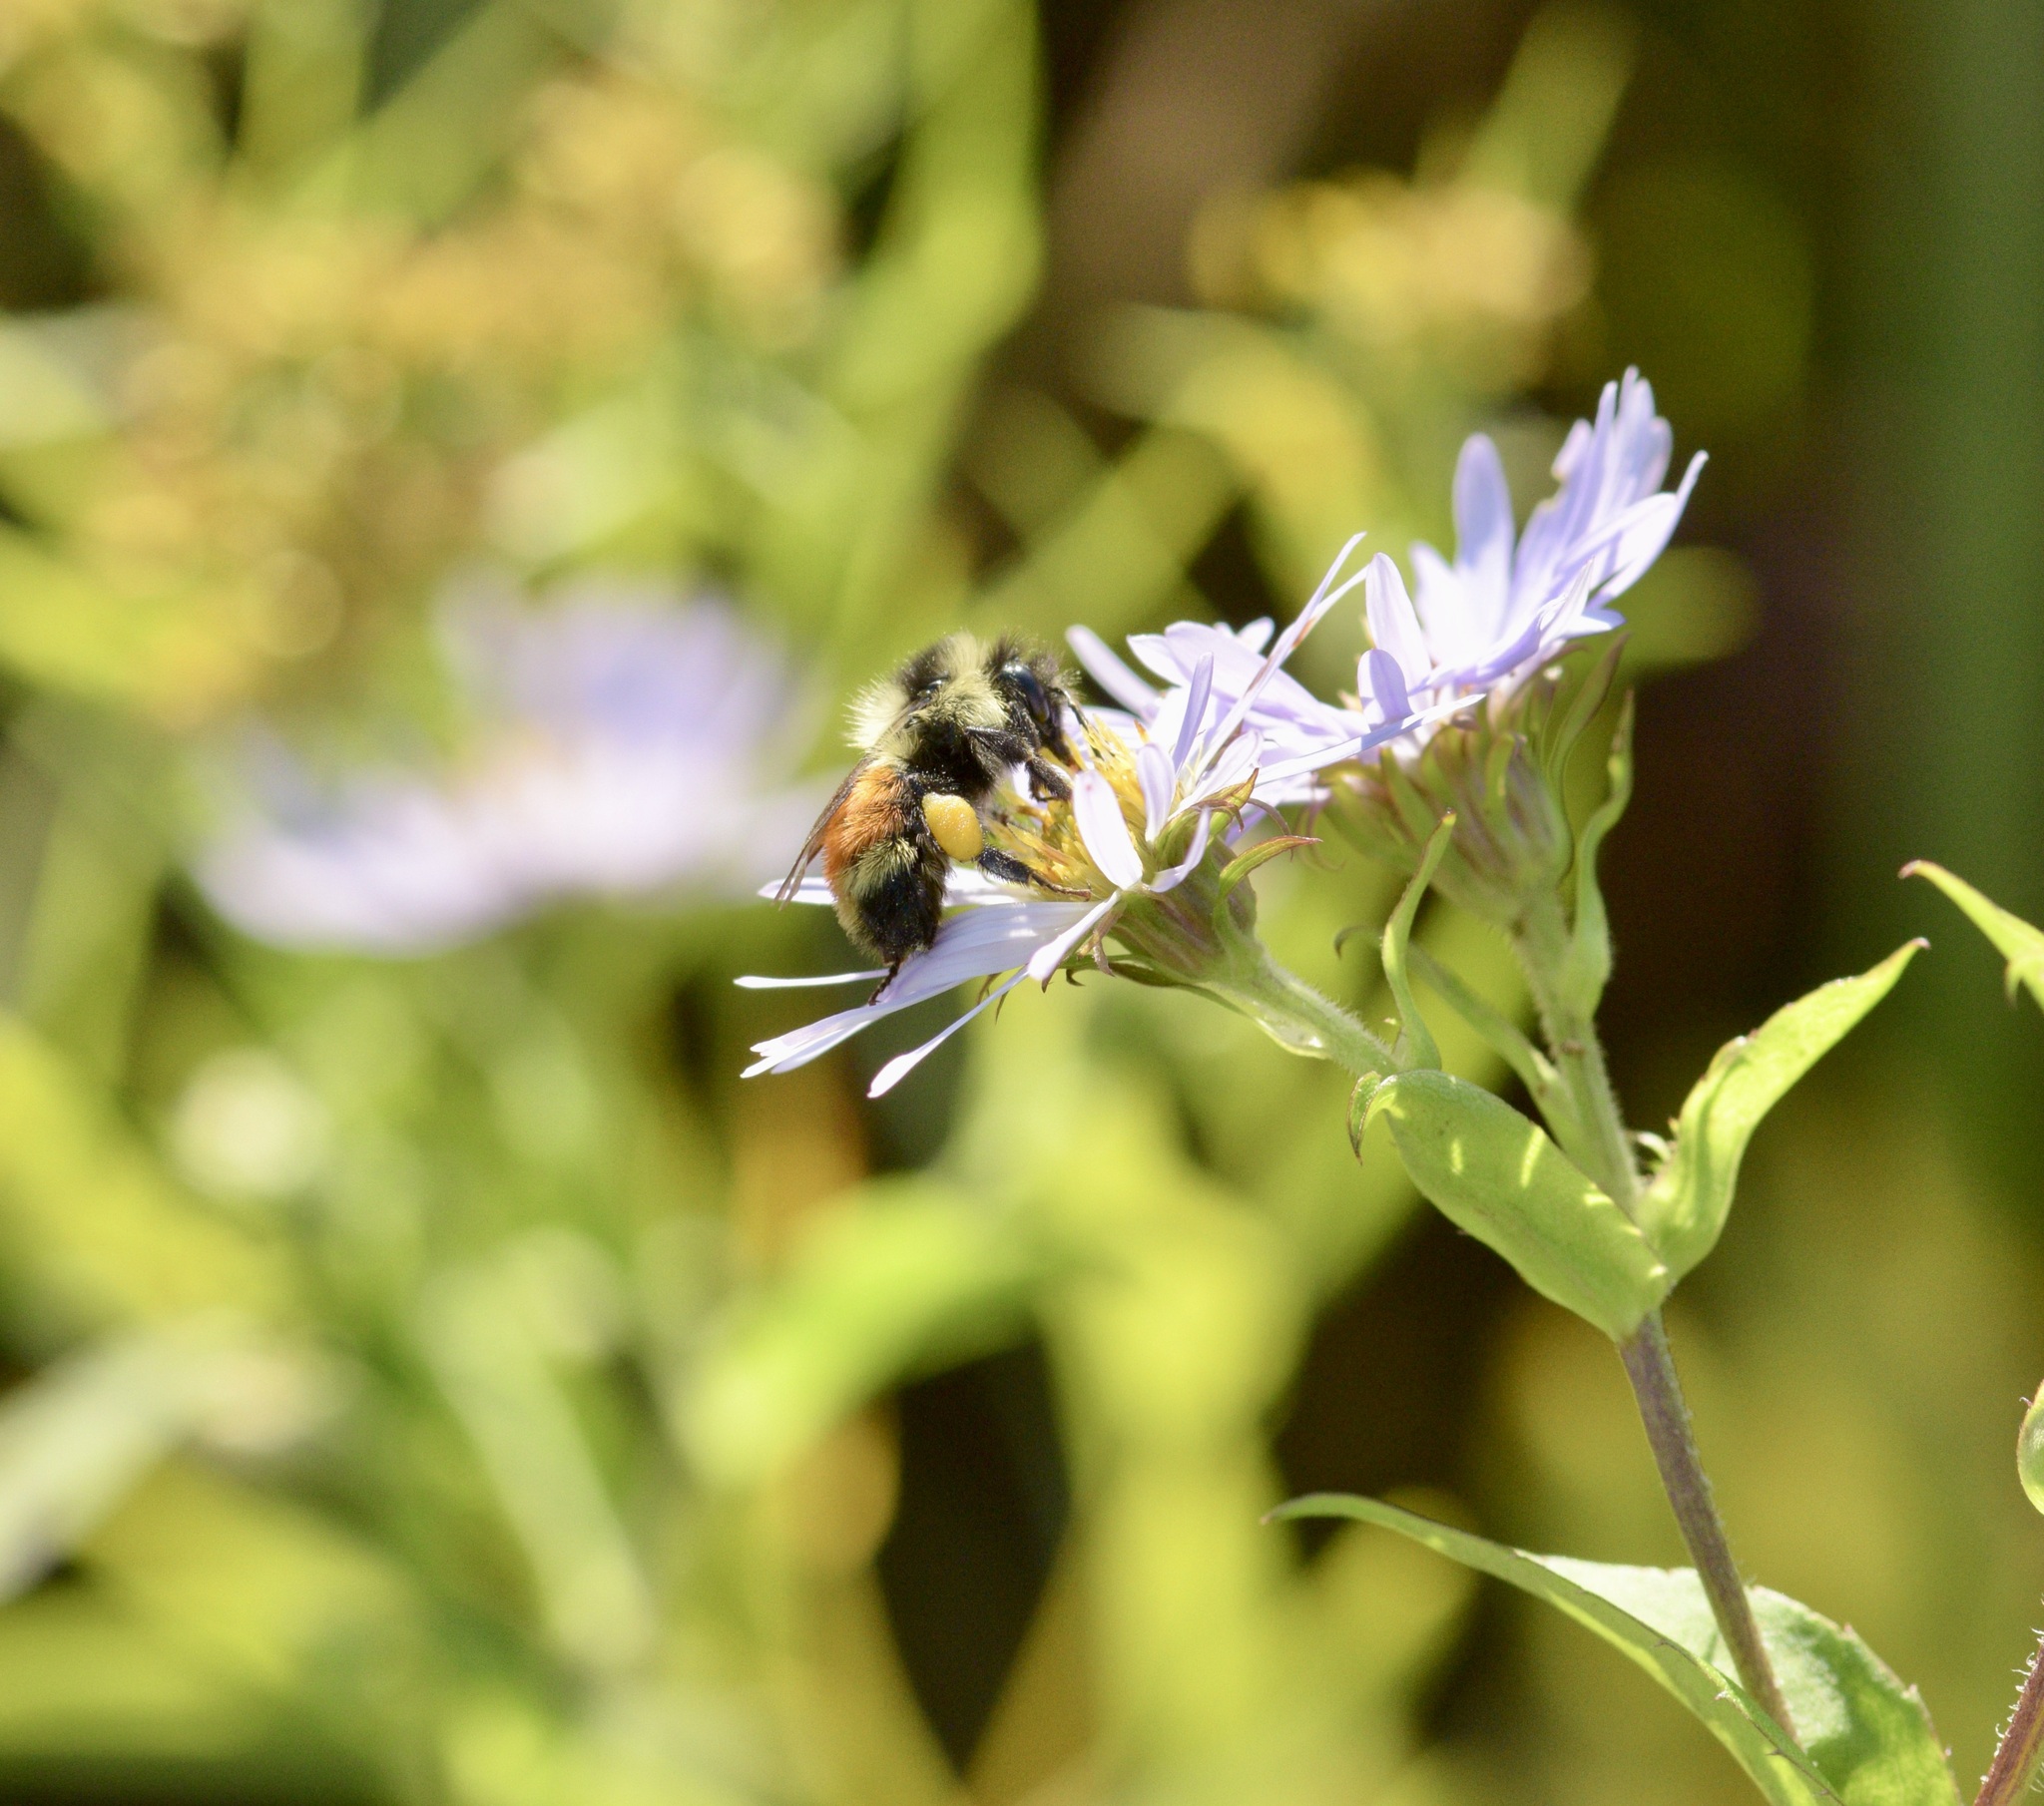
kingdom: Animalia
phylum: Arthropoda
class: Insecta
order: Hymenoptera
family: Apidae
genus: Bombus
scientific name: Bombus ternarius
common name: Tri-colored bumble bee
